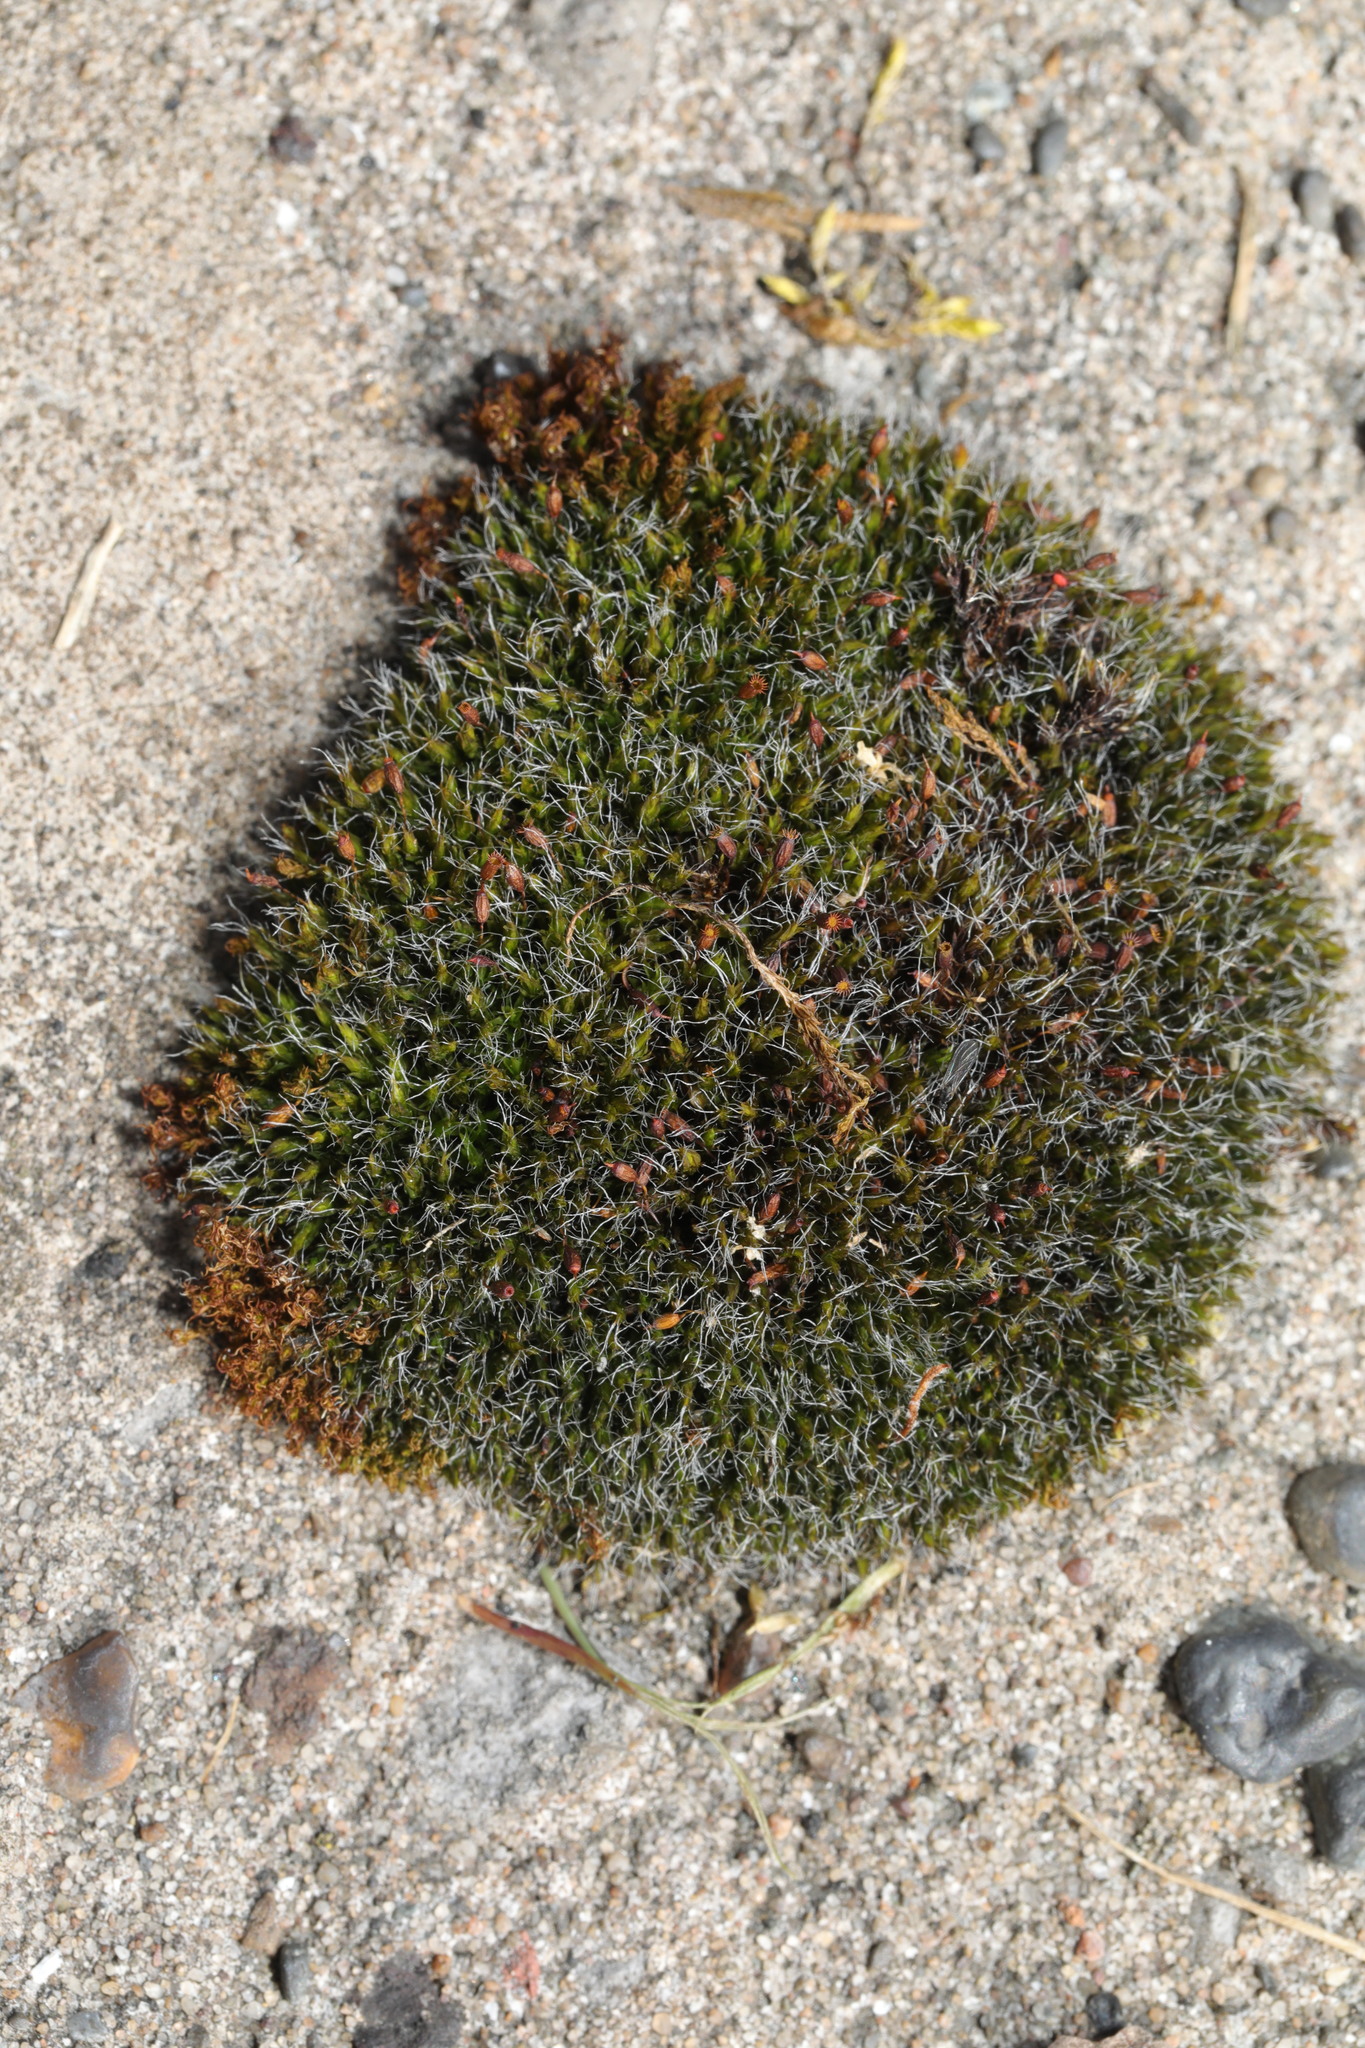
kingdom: Plantae
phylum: Bryophyta
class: Bryopsida
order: Grimmiales
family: Grimmiaceae
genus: Grimmia
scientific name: Grimmia pulvinata
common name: Grey-cushioned grimmia
